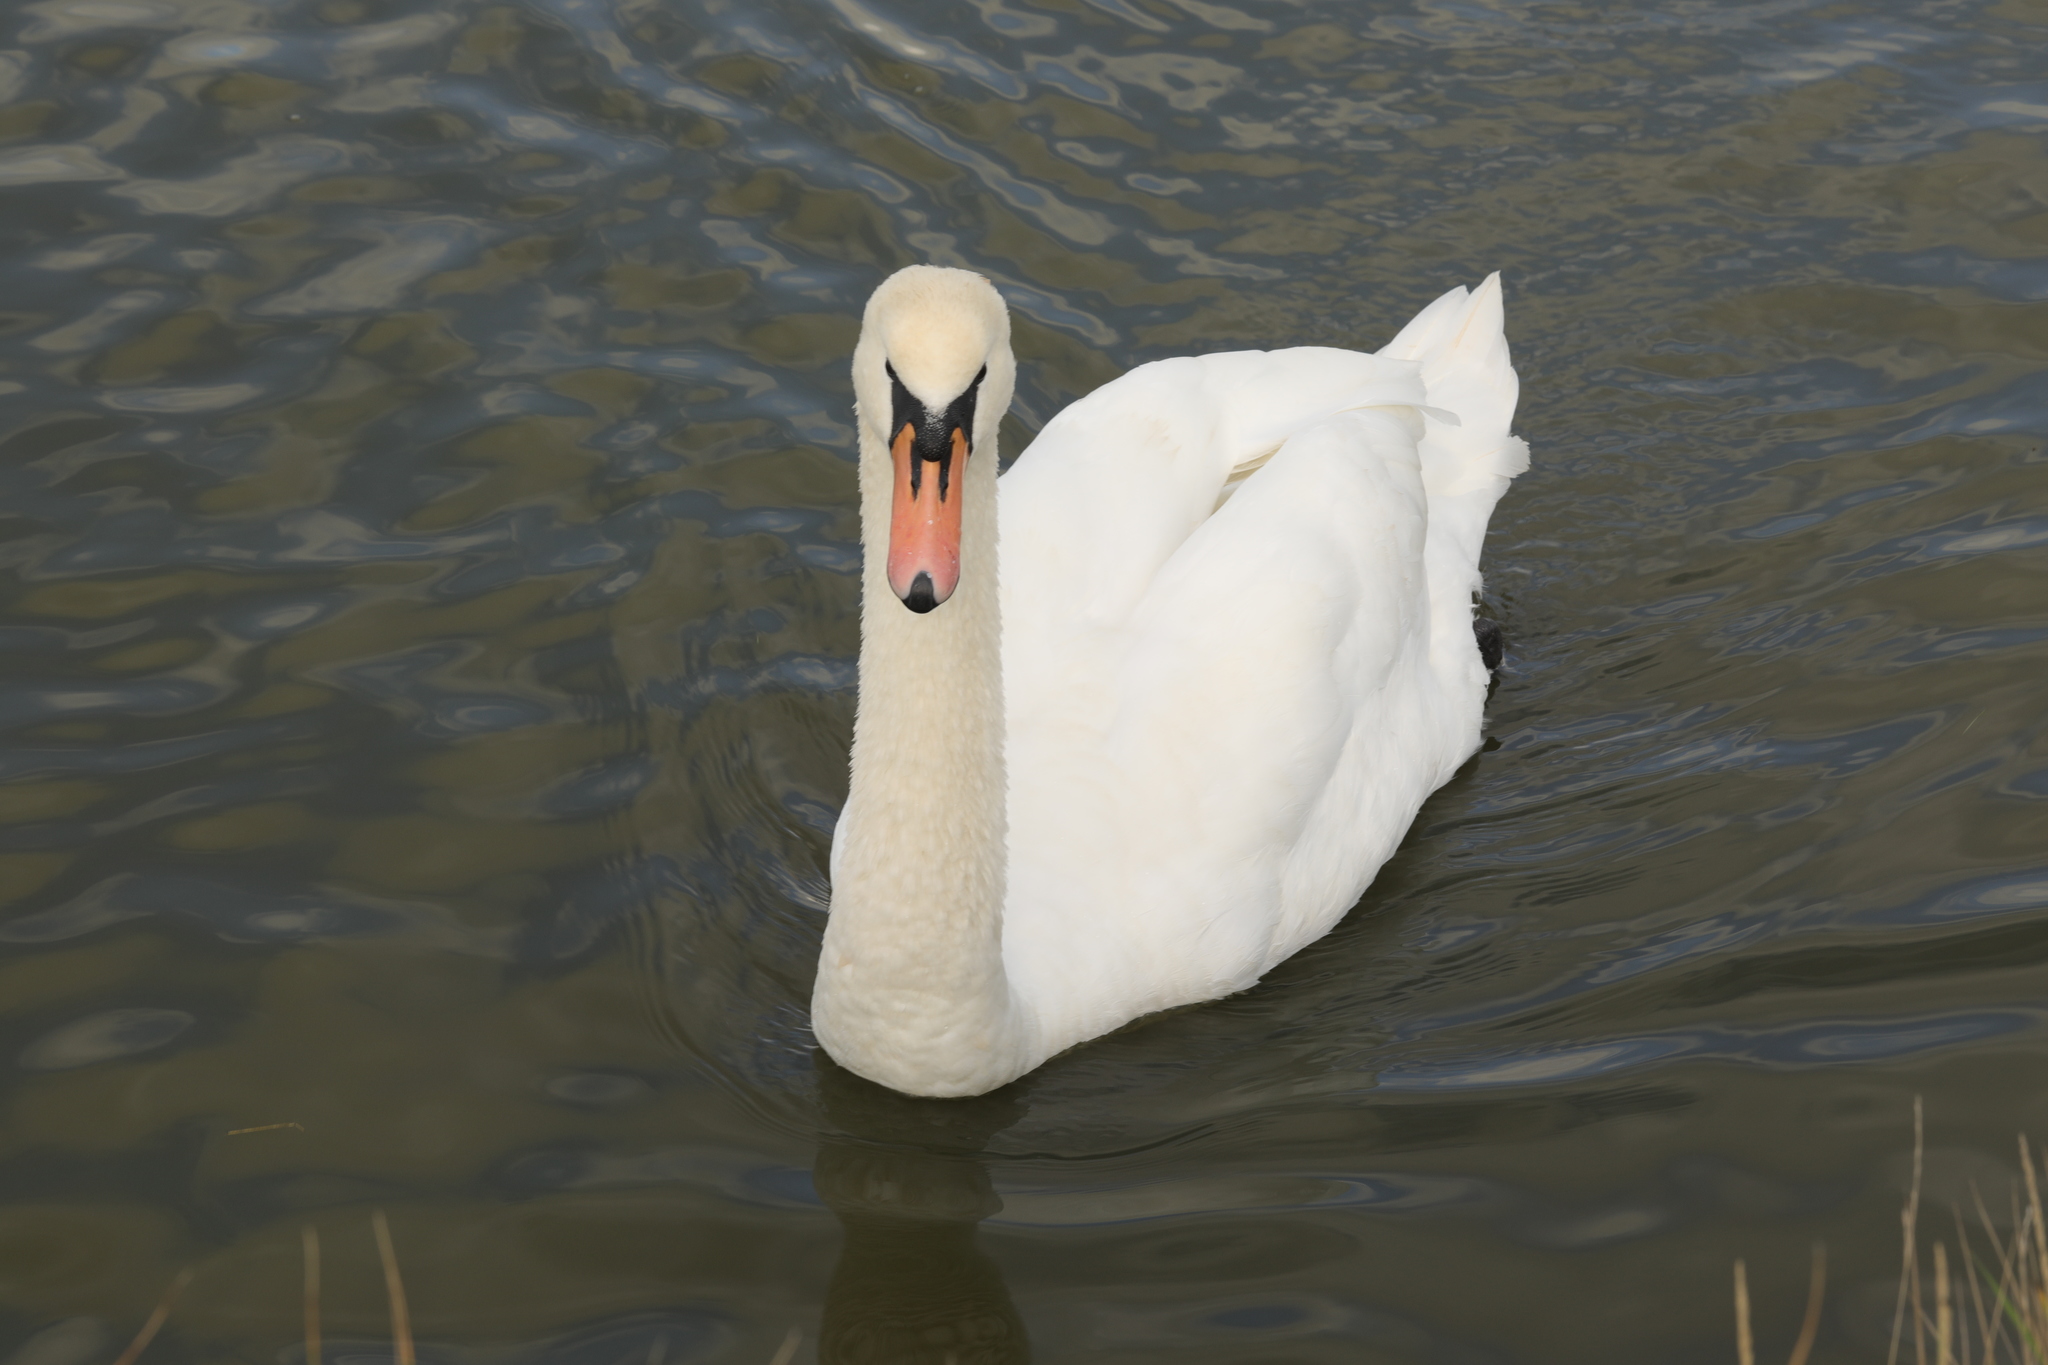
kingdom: Animalia
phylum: Chordata
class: Aves
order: Anseriformes
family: Anatidae
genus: Cygnus
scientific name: Cygnus olor
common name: Mute swan
